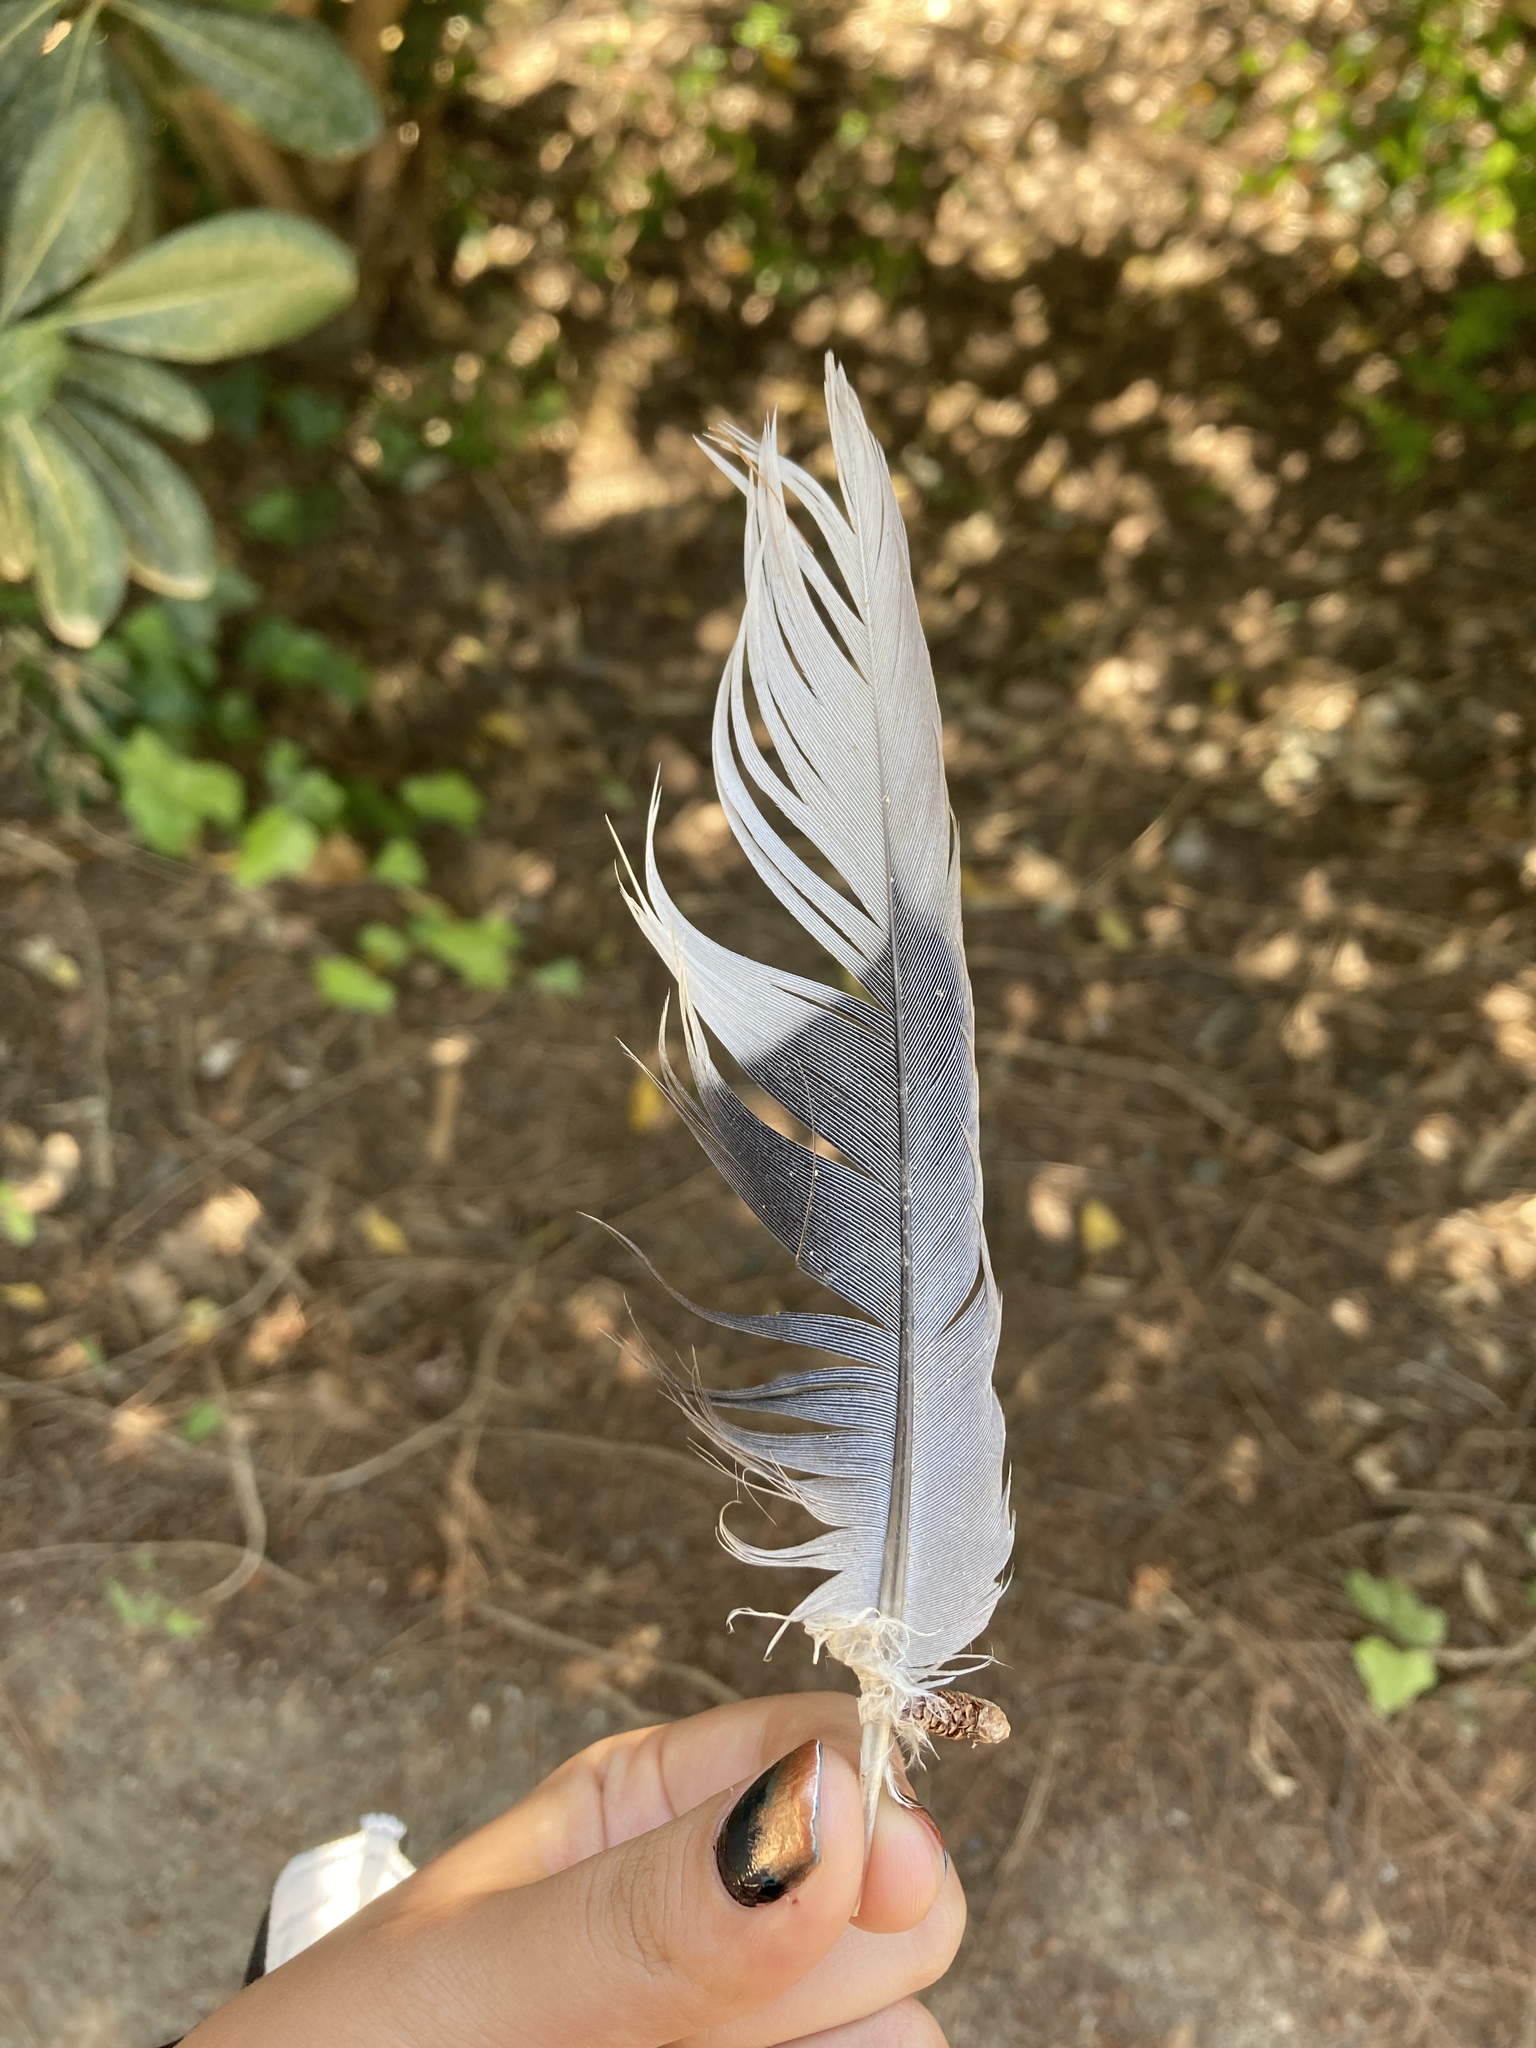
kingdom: Animalia
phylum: Chordata
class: Aves
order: Columbiformes
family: Columbidae
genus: Streptopelia
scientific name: Streptopelia decaocto
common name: Eurasian collared dove
